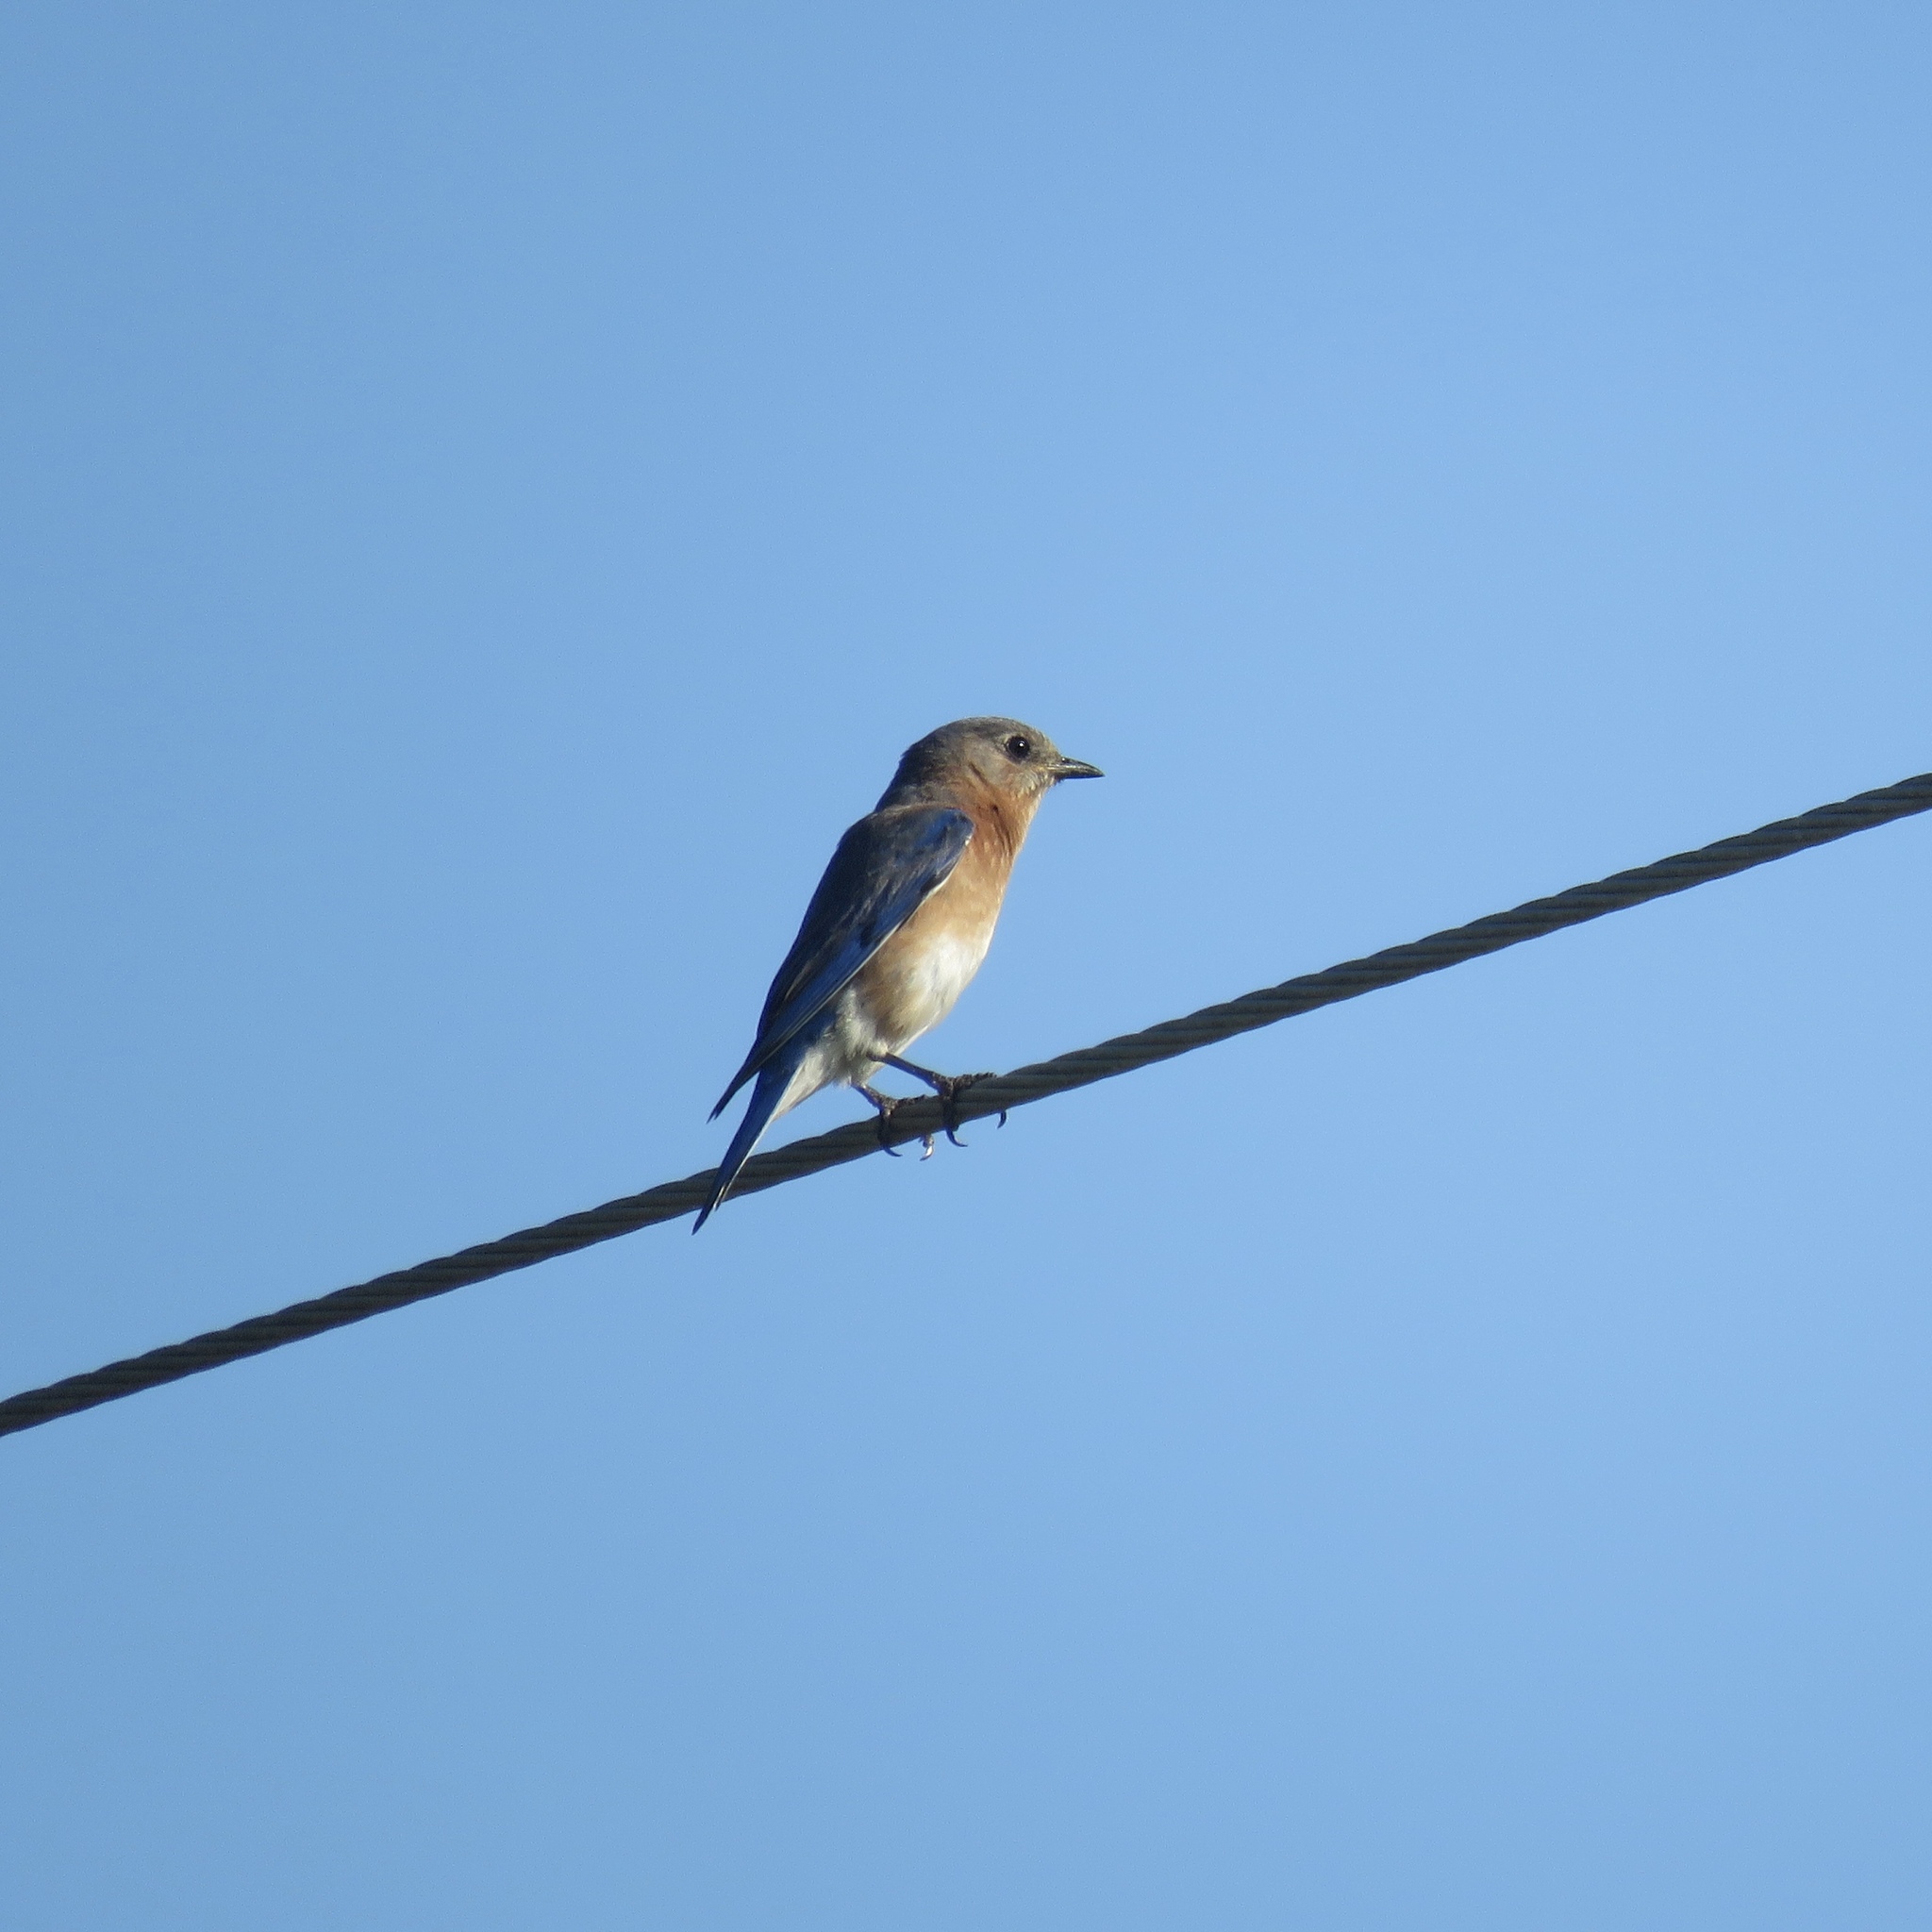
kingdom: Animalia
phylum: Chordata
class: Aves
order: Passeriformes
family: Turdidae
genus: Sialia
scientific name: Sialia sialis
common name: Eastern bluebird
